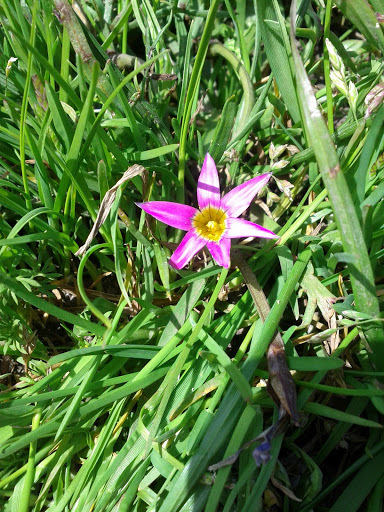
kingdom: Plantae
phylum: Tracheophyta
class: Liliopsida
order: Asparagales
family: Iridaceae
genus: Romulea
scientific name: Romulea rosea
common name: Oniongrass
